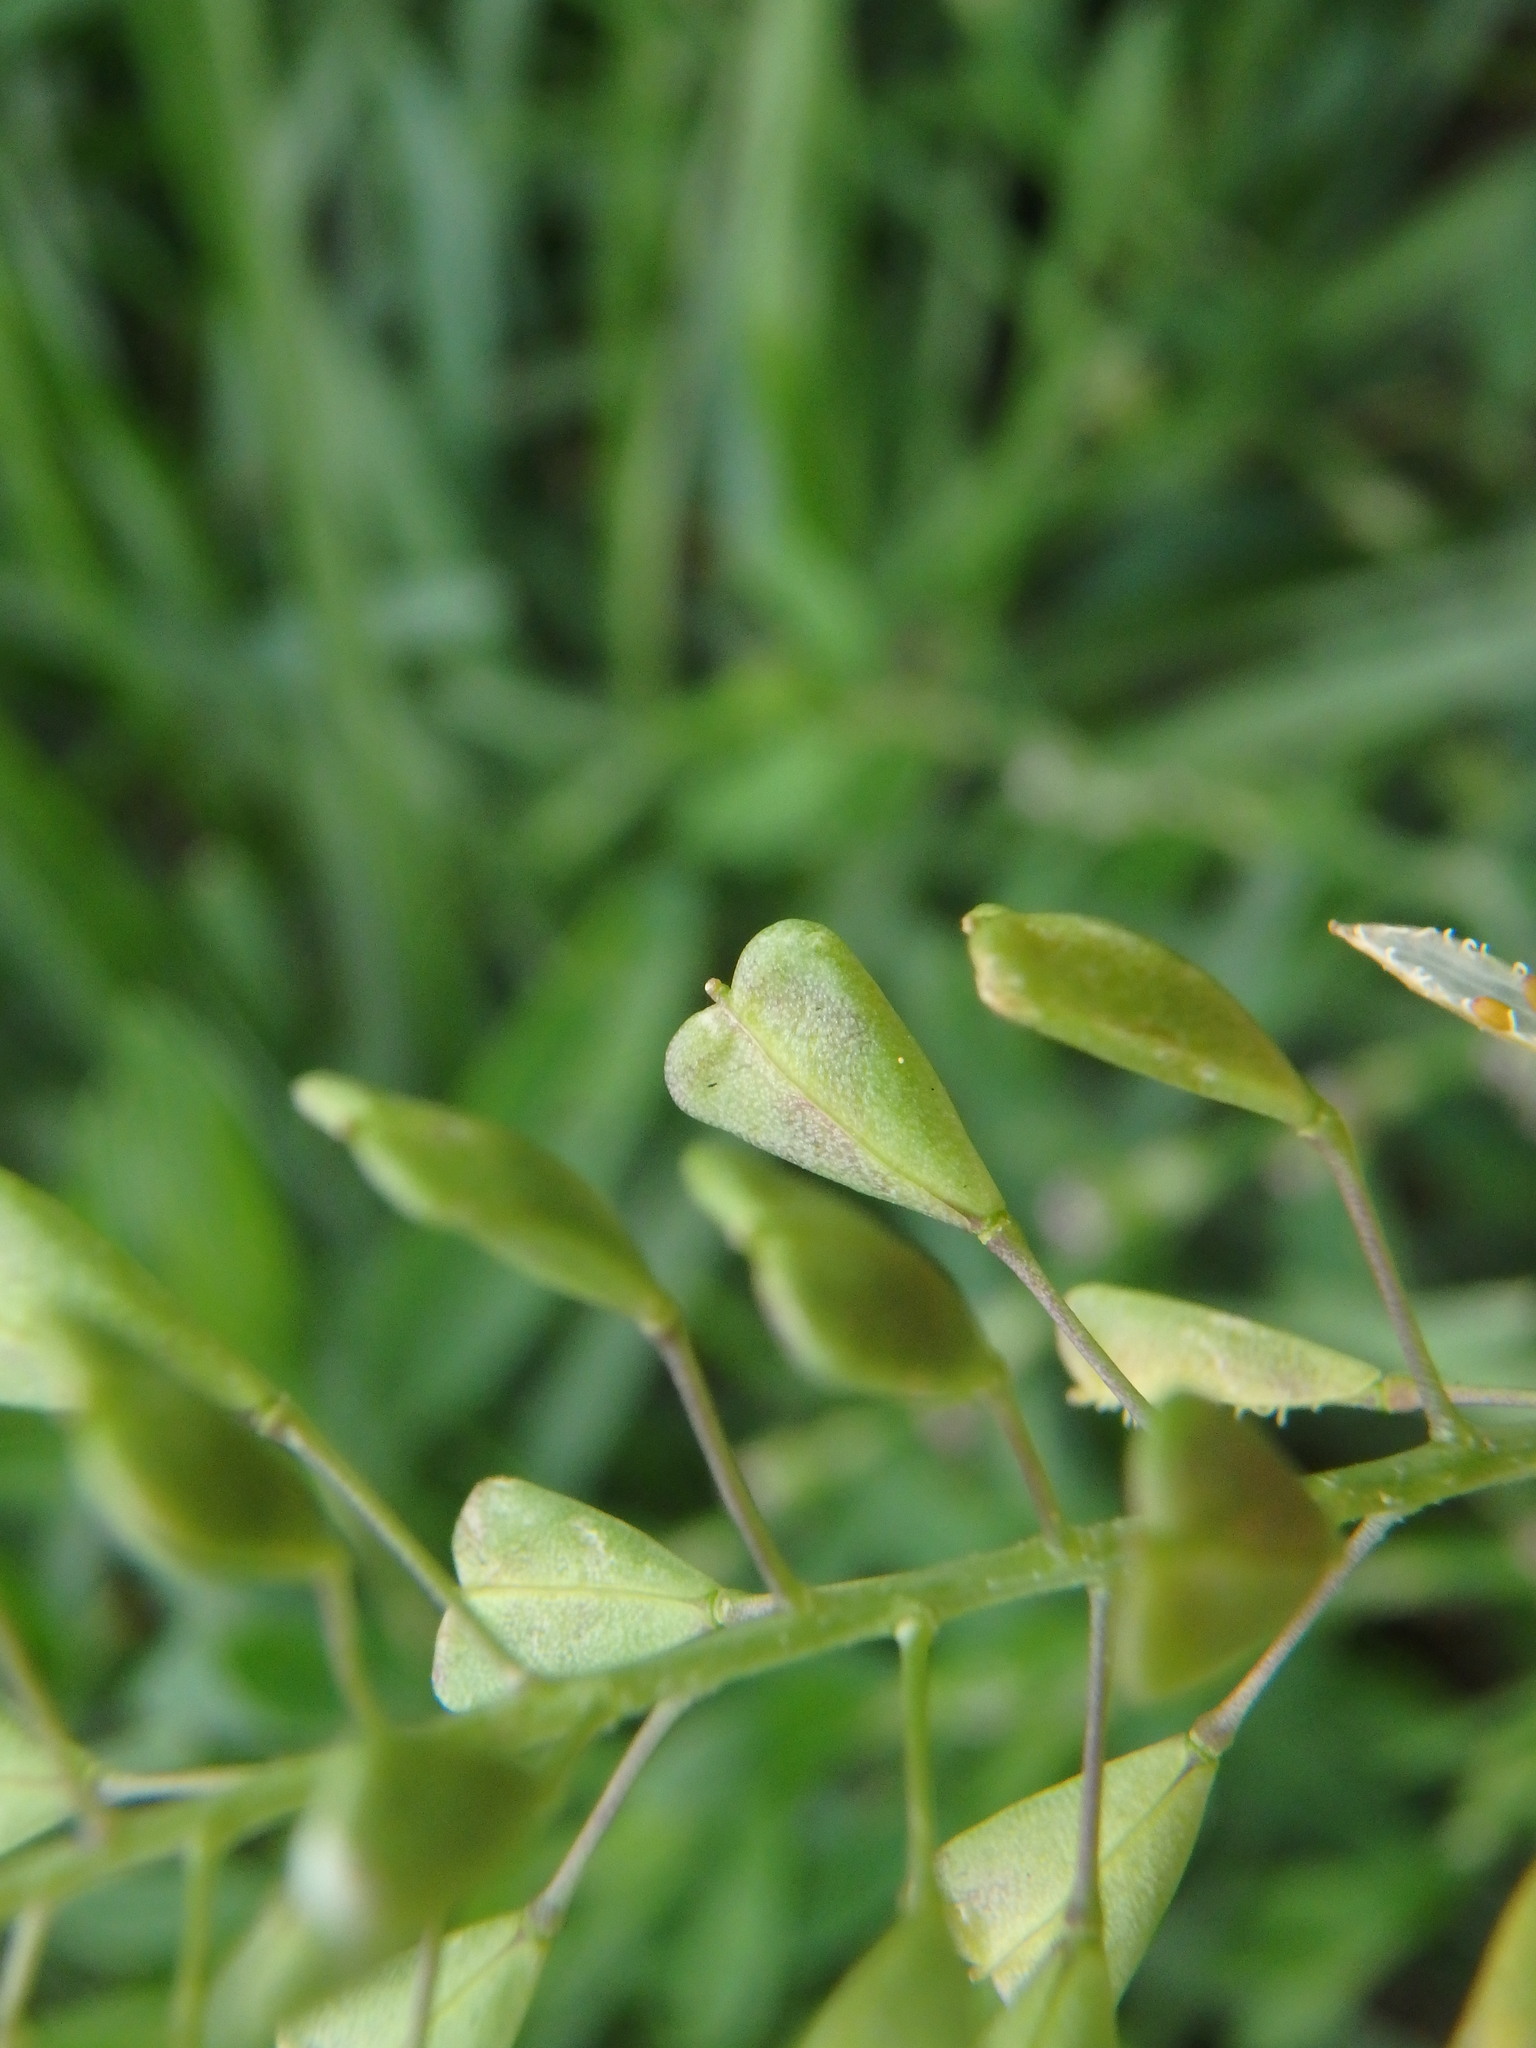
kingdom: Plantae
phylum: Tracheophyta
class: Magnoliopsida
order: Brassicales
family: Brassicaceae
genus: Capsella
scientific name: Capsella bursa-pastoris
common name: Shepherd's purse
